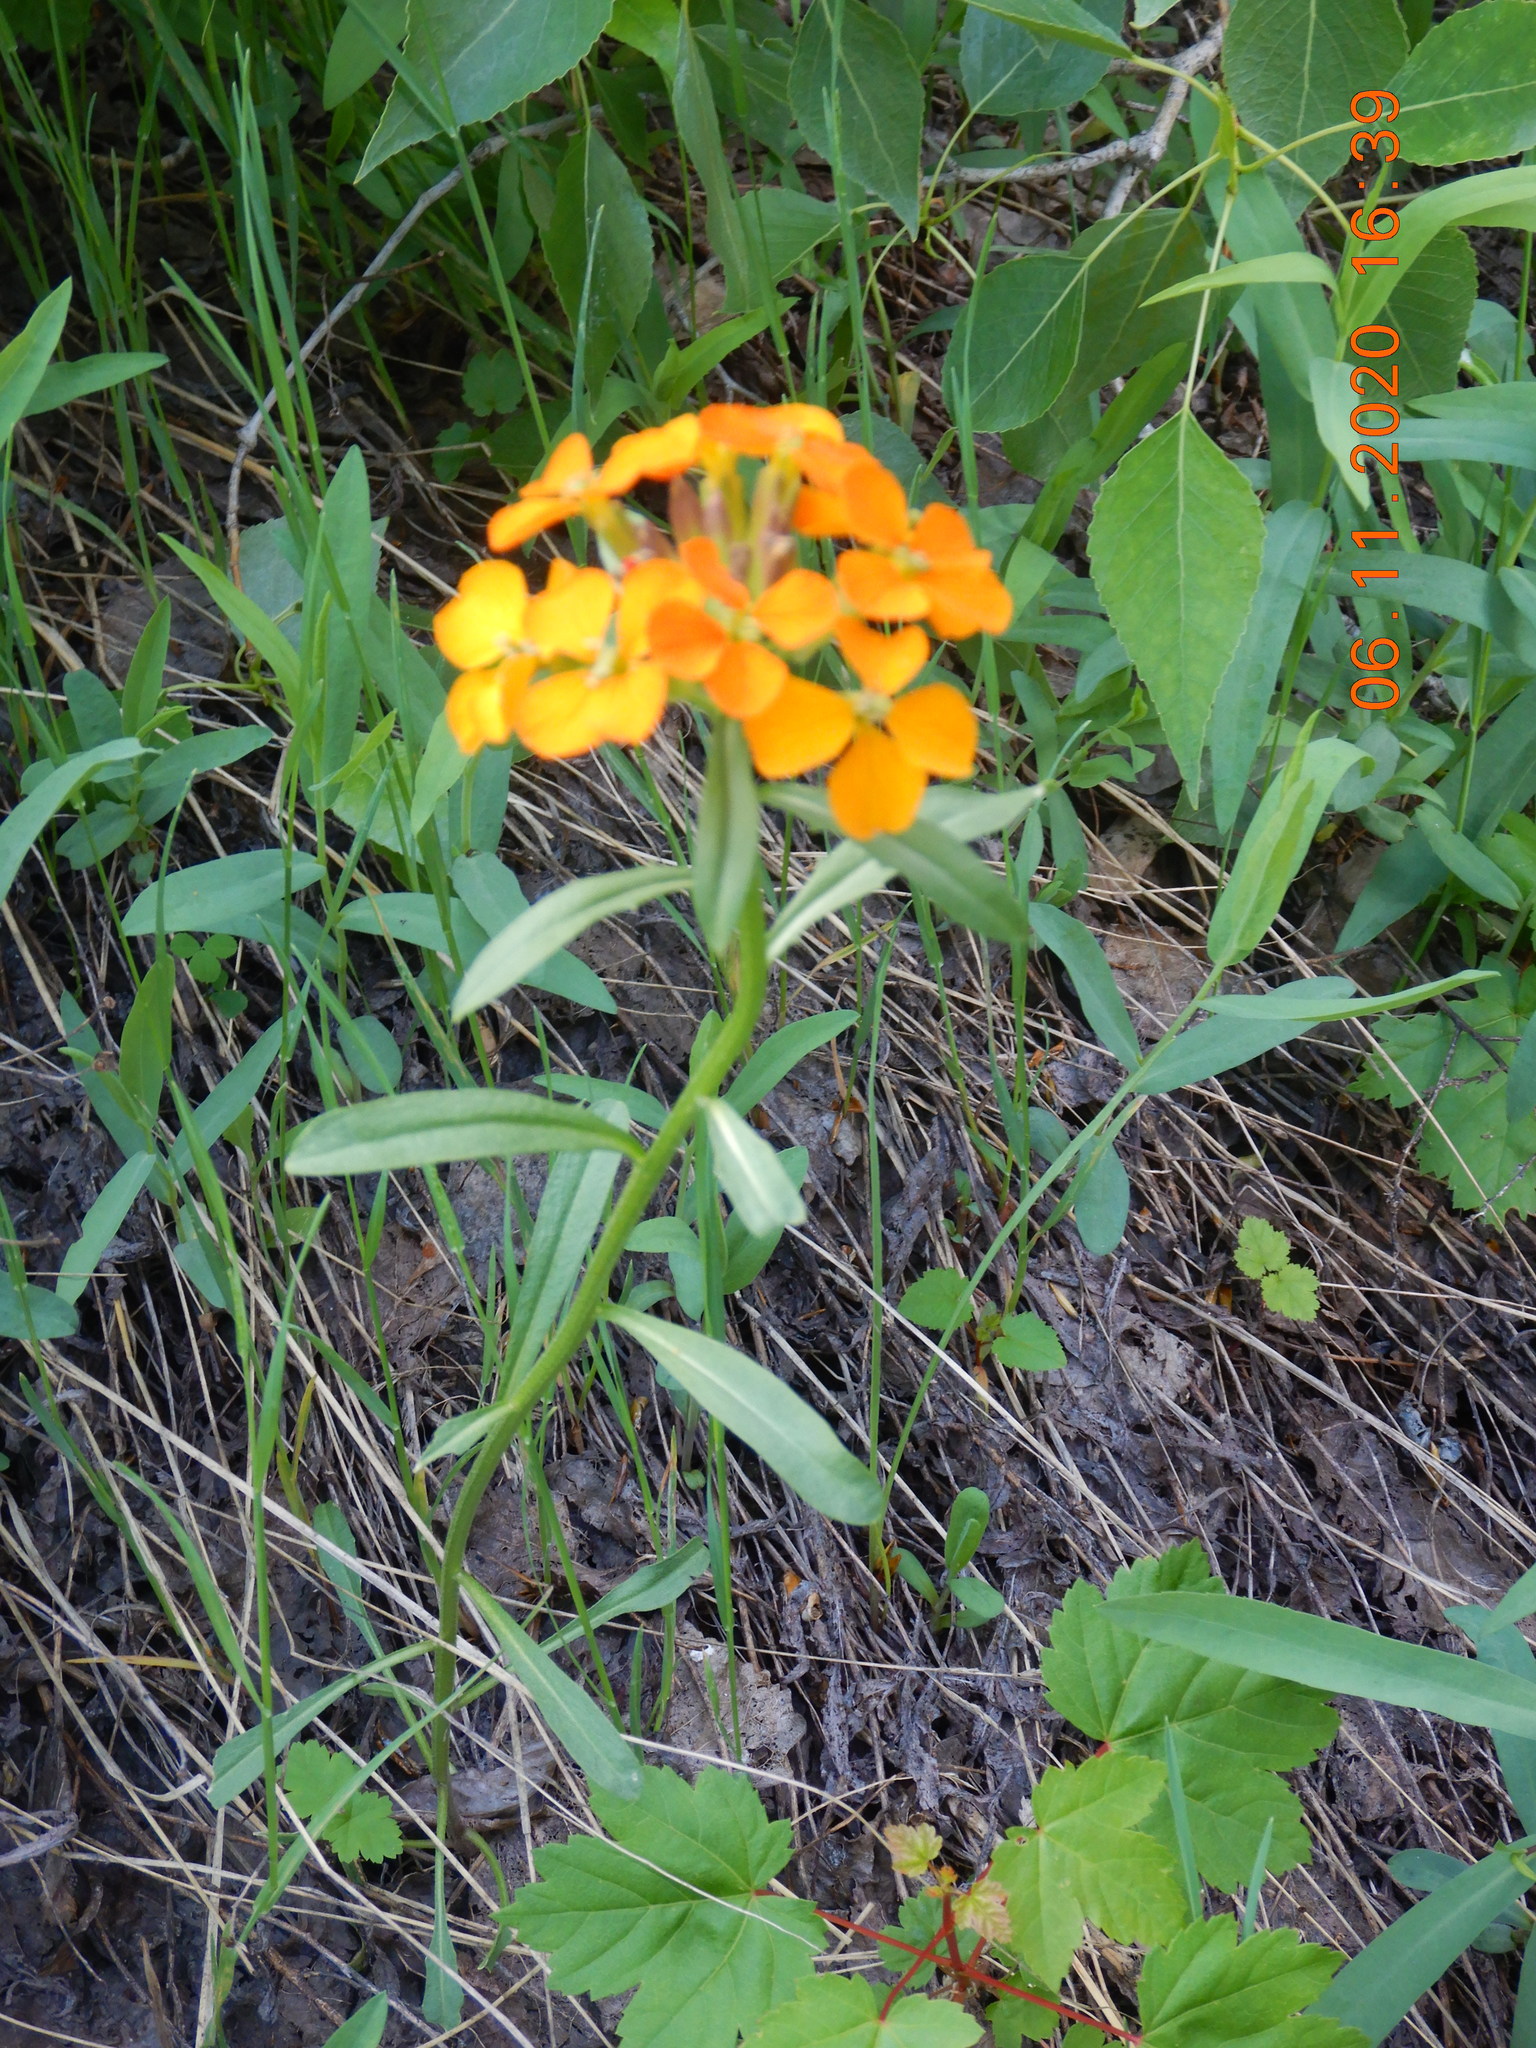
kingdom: Plantae
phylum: Tracheophyta
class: Magnoliopsida
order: Brassicales
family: Brassicaceae
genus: Erysimum
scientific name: Erysimum capitatum
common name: Western wallflower
